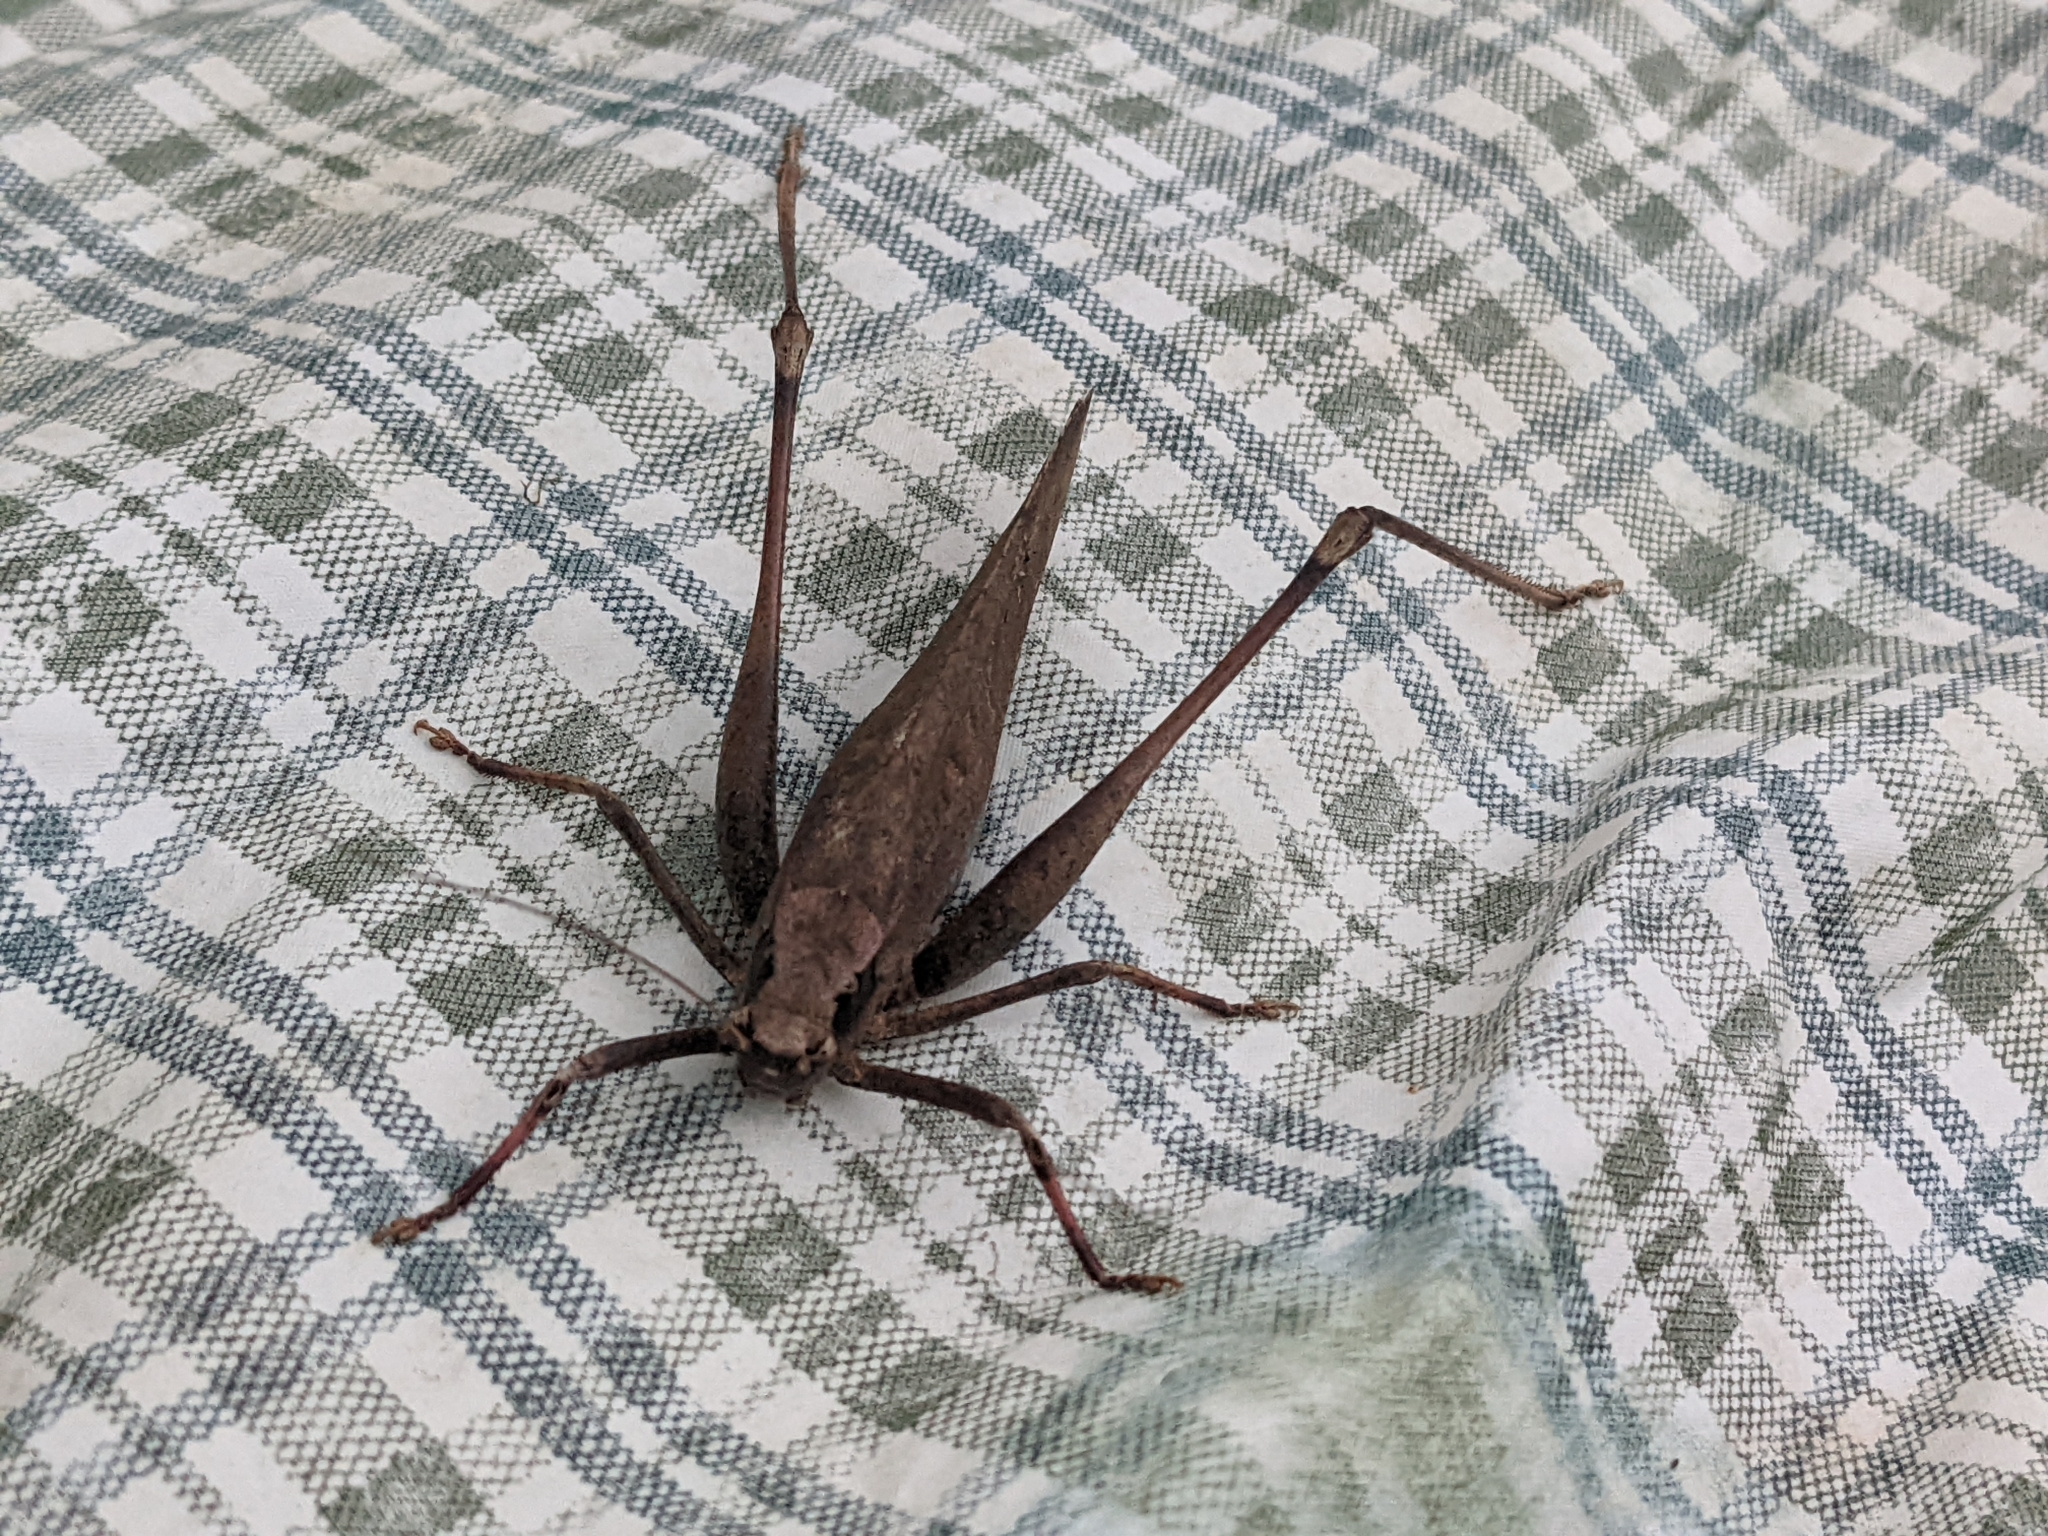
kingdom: Animalia
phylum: Arthropoda
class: Insecta
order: Orthoptera
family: Tettigoniidae
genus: Mecopoda
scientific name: Mecopoda elongata
